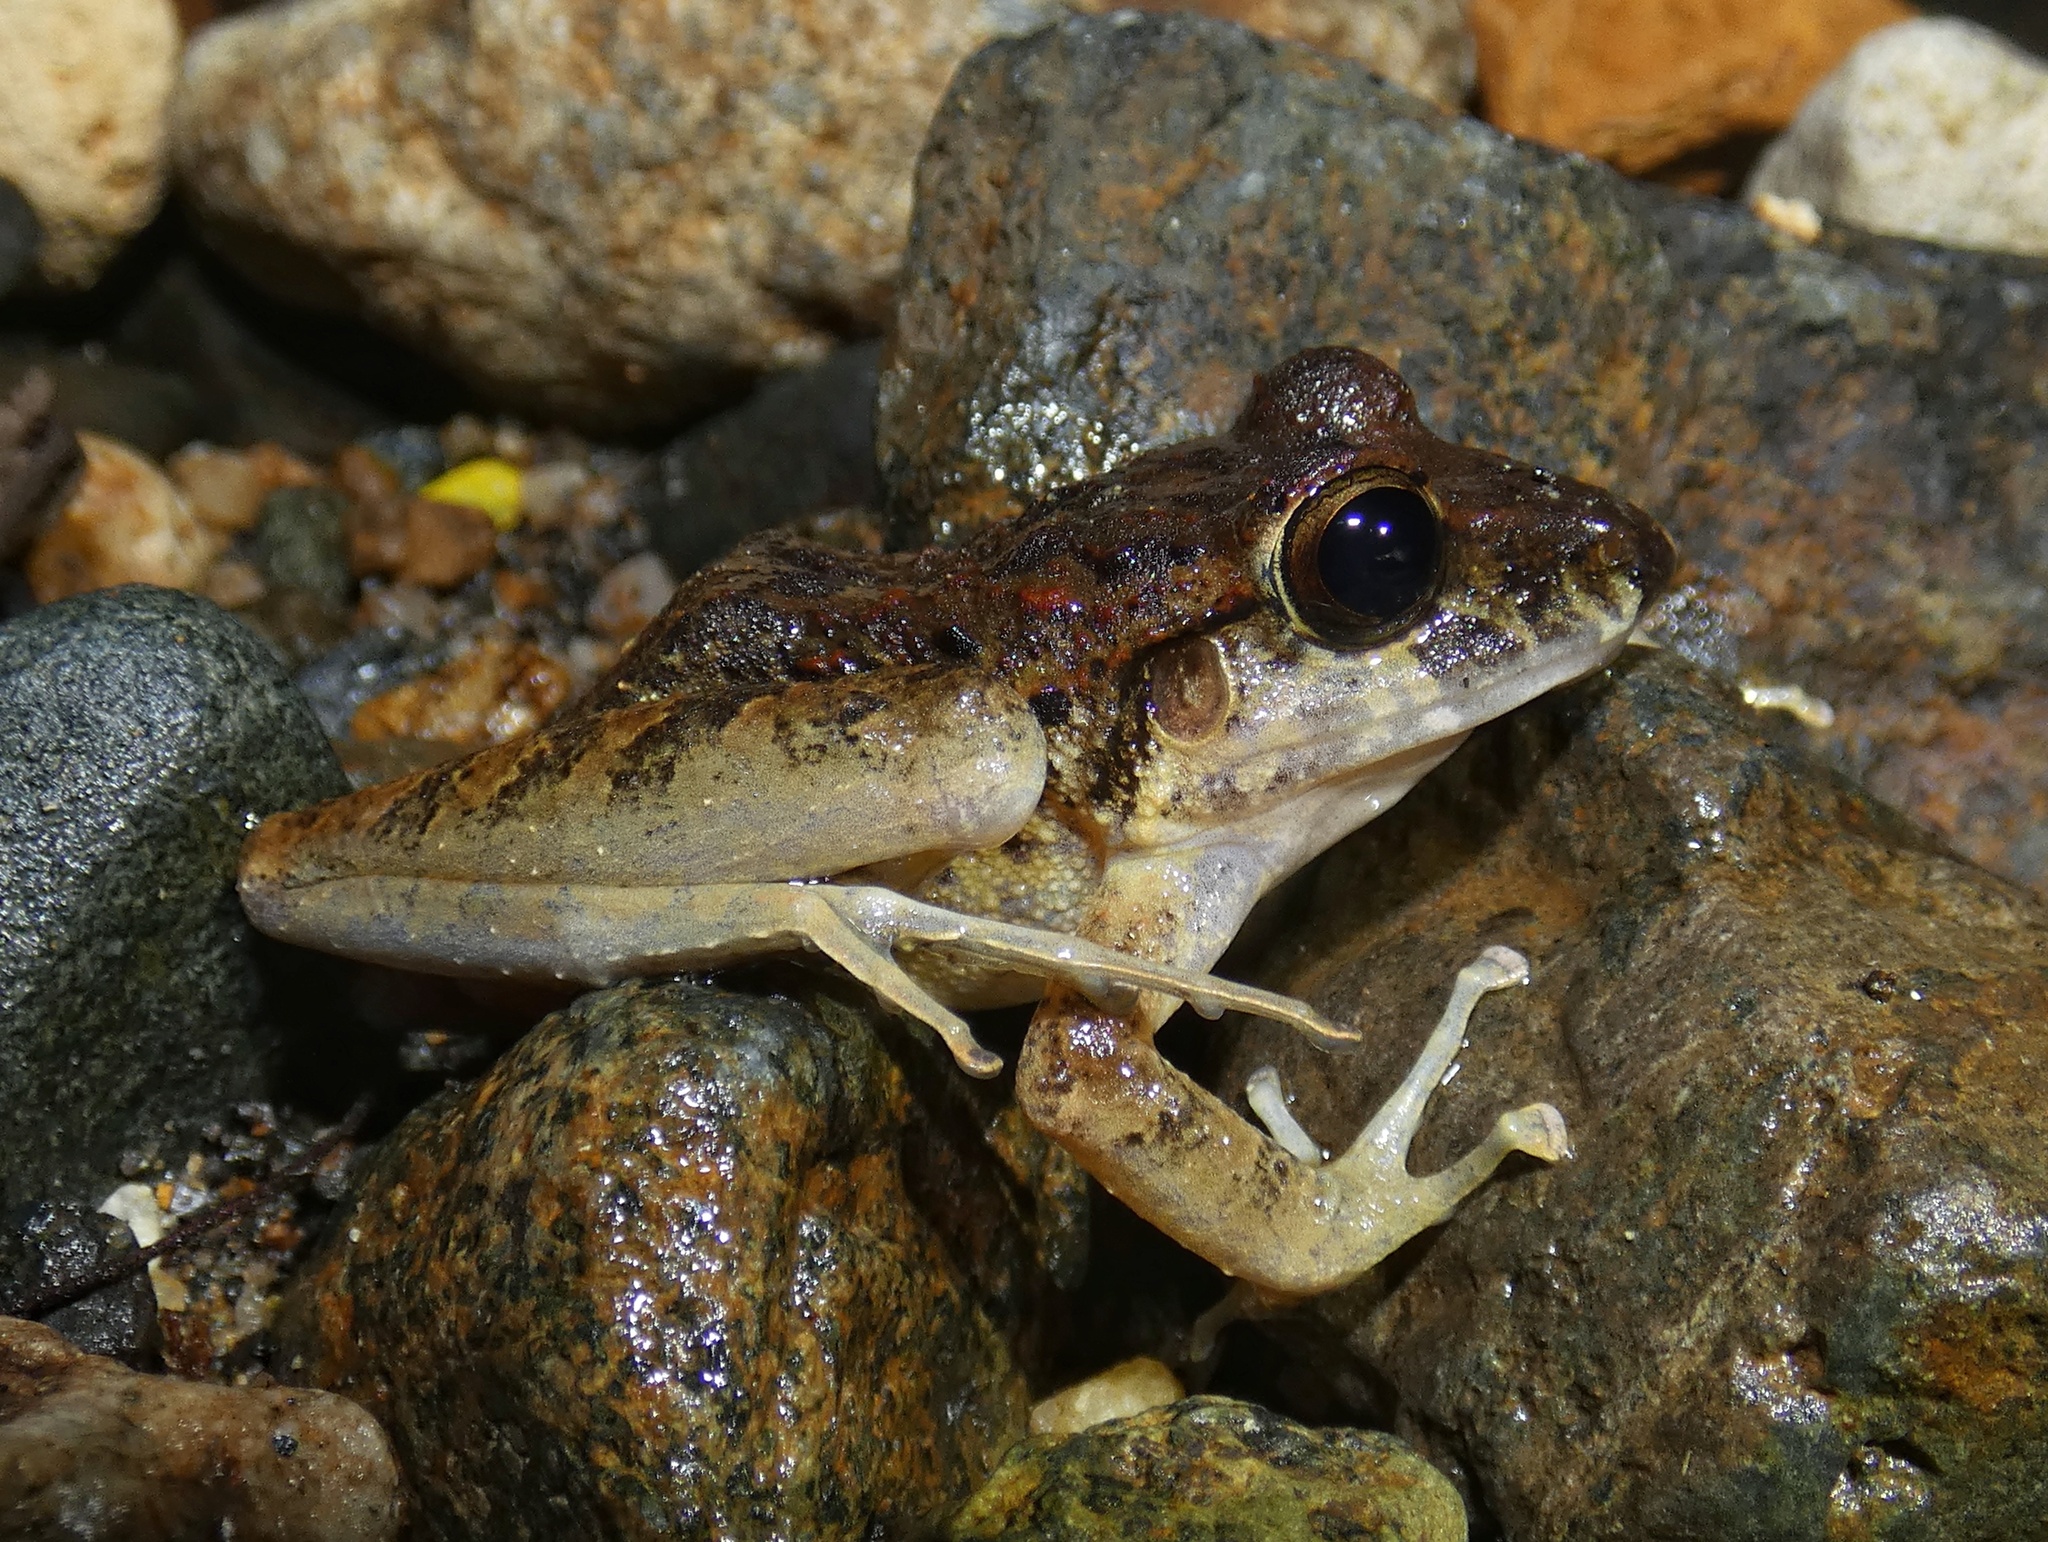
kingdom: Animalia
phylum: Chordata
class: Amphibia
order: Anura
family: Craugastoridae
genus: Craugastor
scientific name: Craugastor fitzingeri
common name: Fitzinger's robber frog
